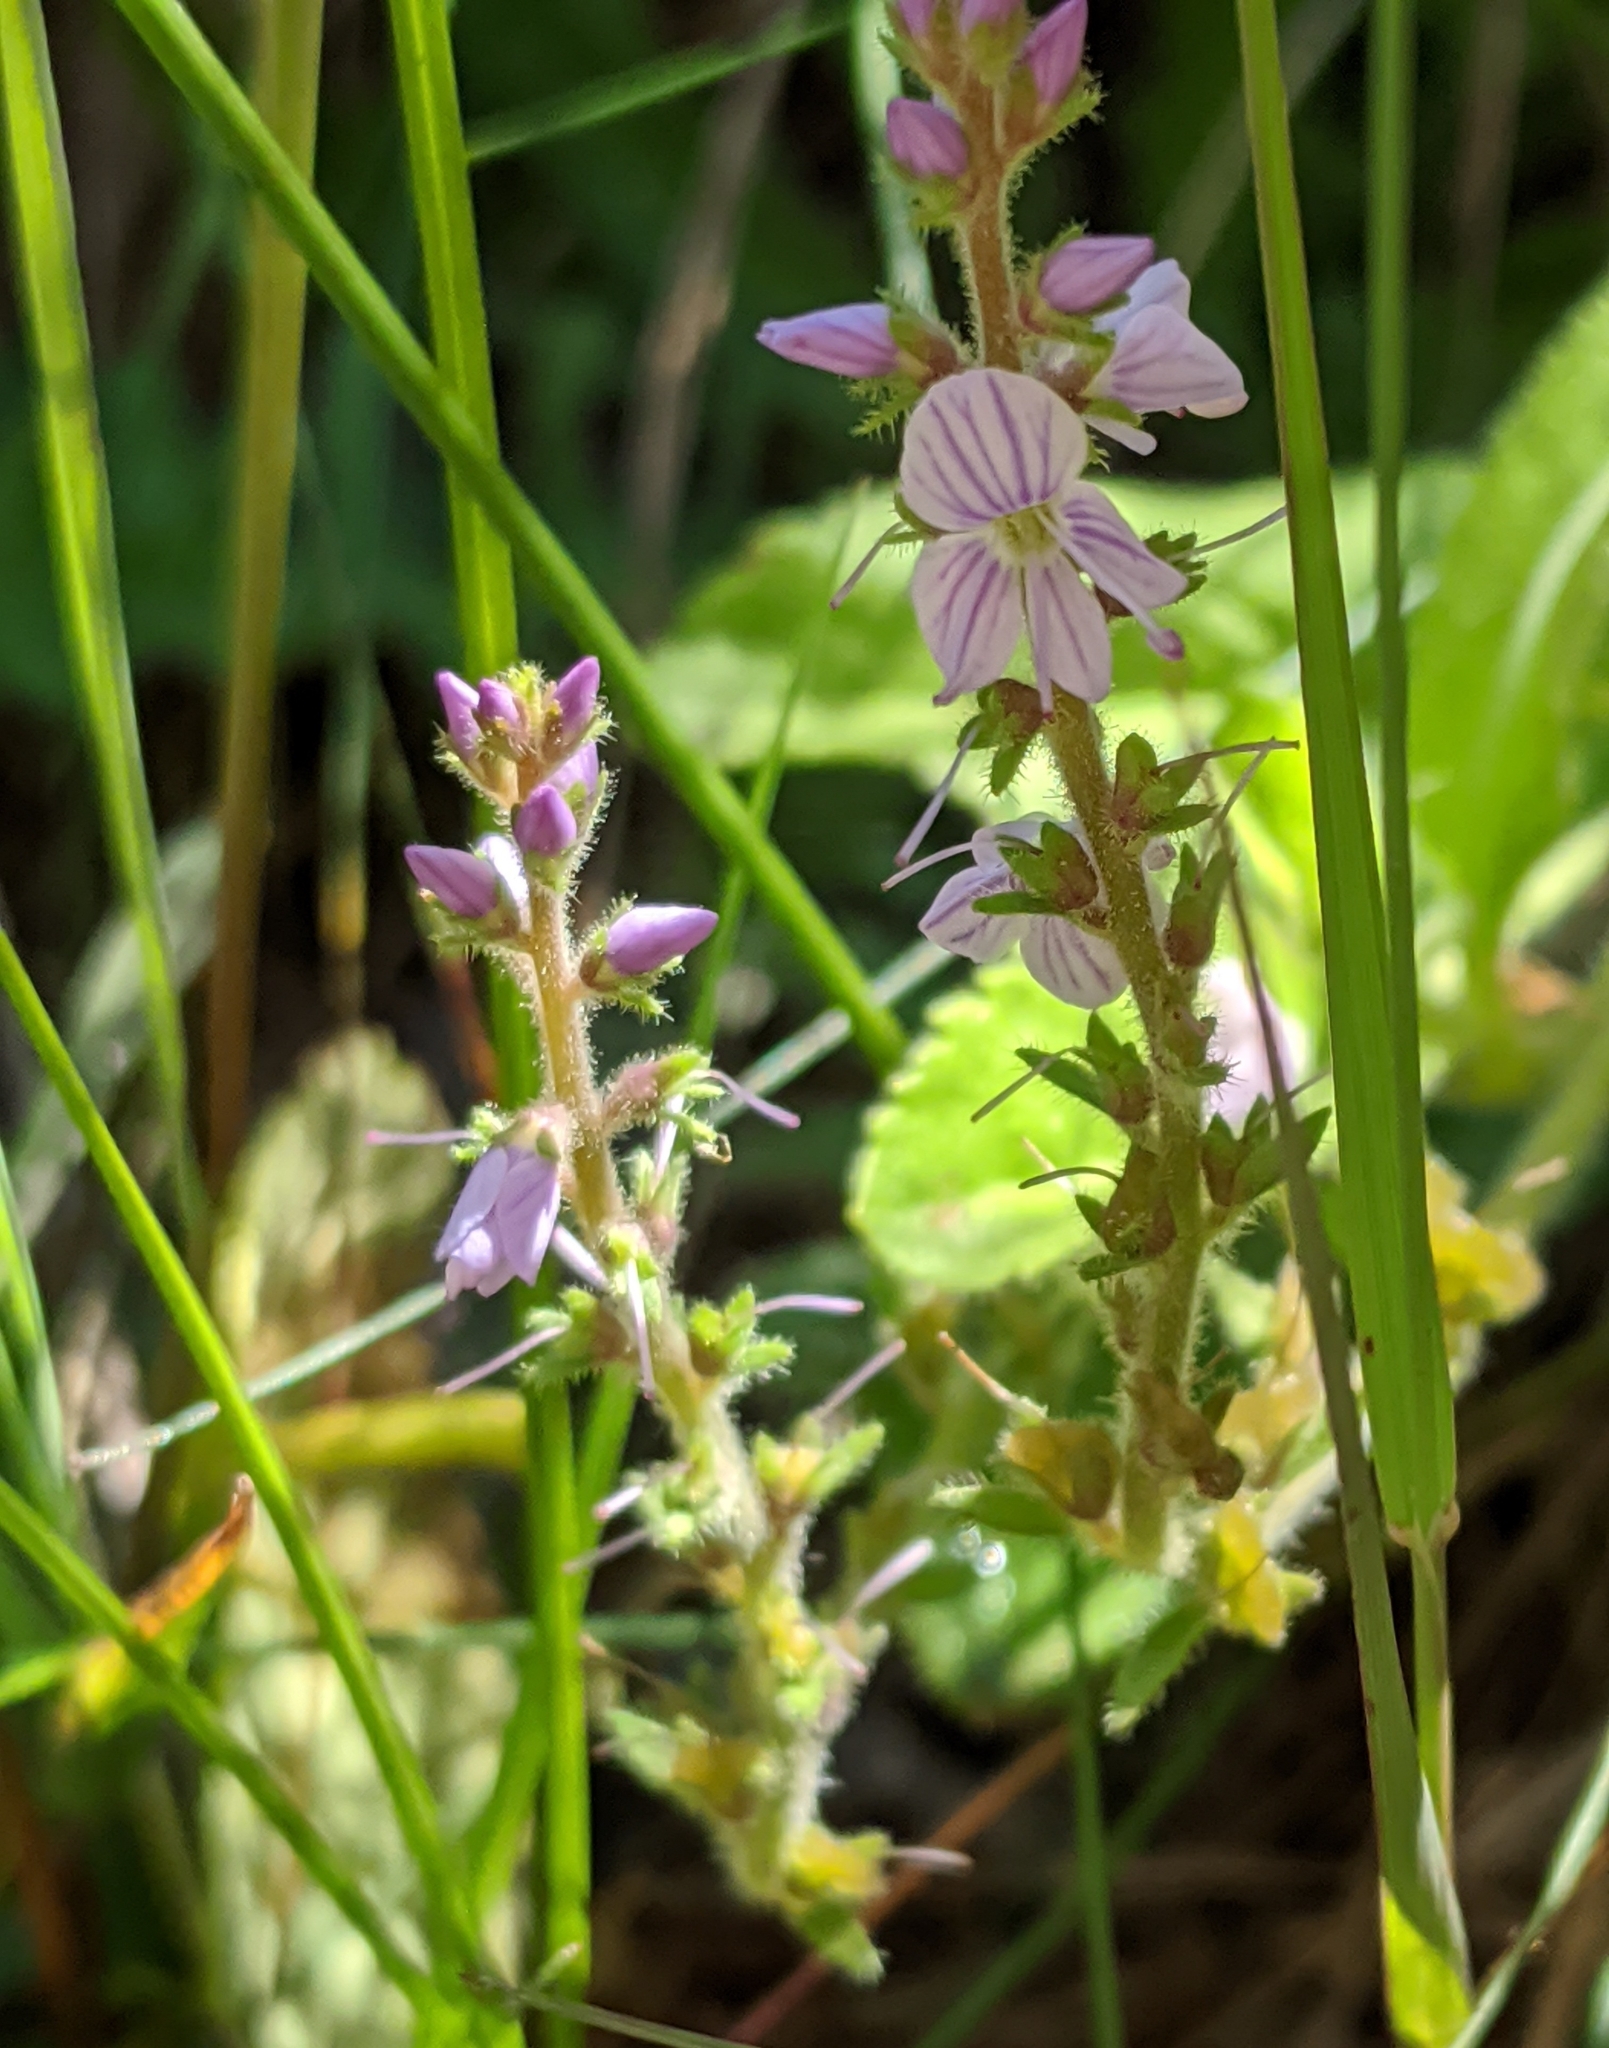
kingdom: Plantae
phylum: Tracheophyta
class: Magnoliopsida
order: Lamiales
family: Plantaginaceae
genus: Veronica
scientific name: Veronica officinalis
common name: Common speedwell
